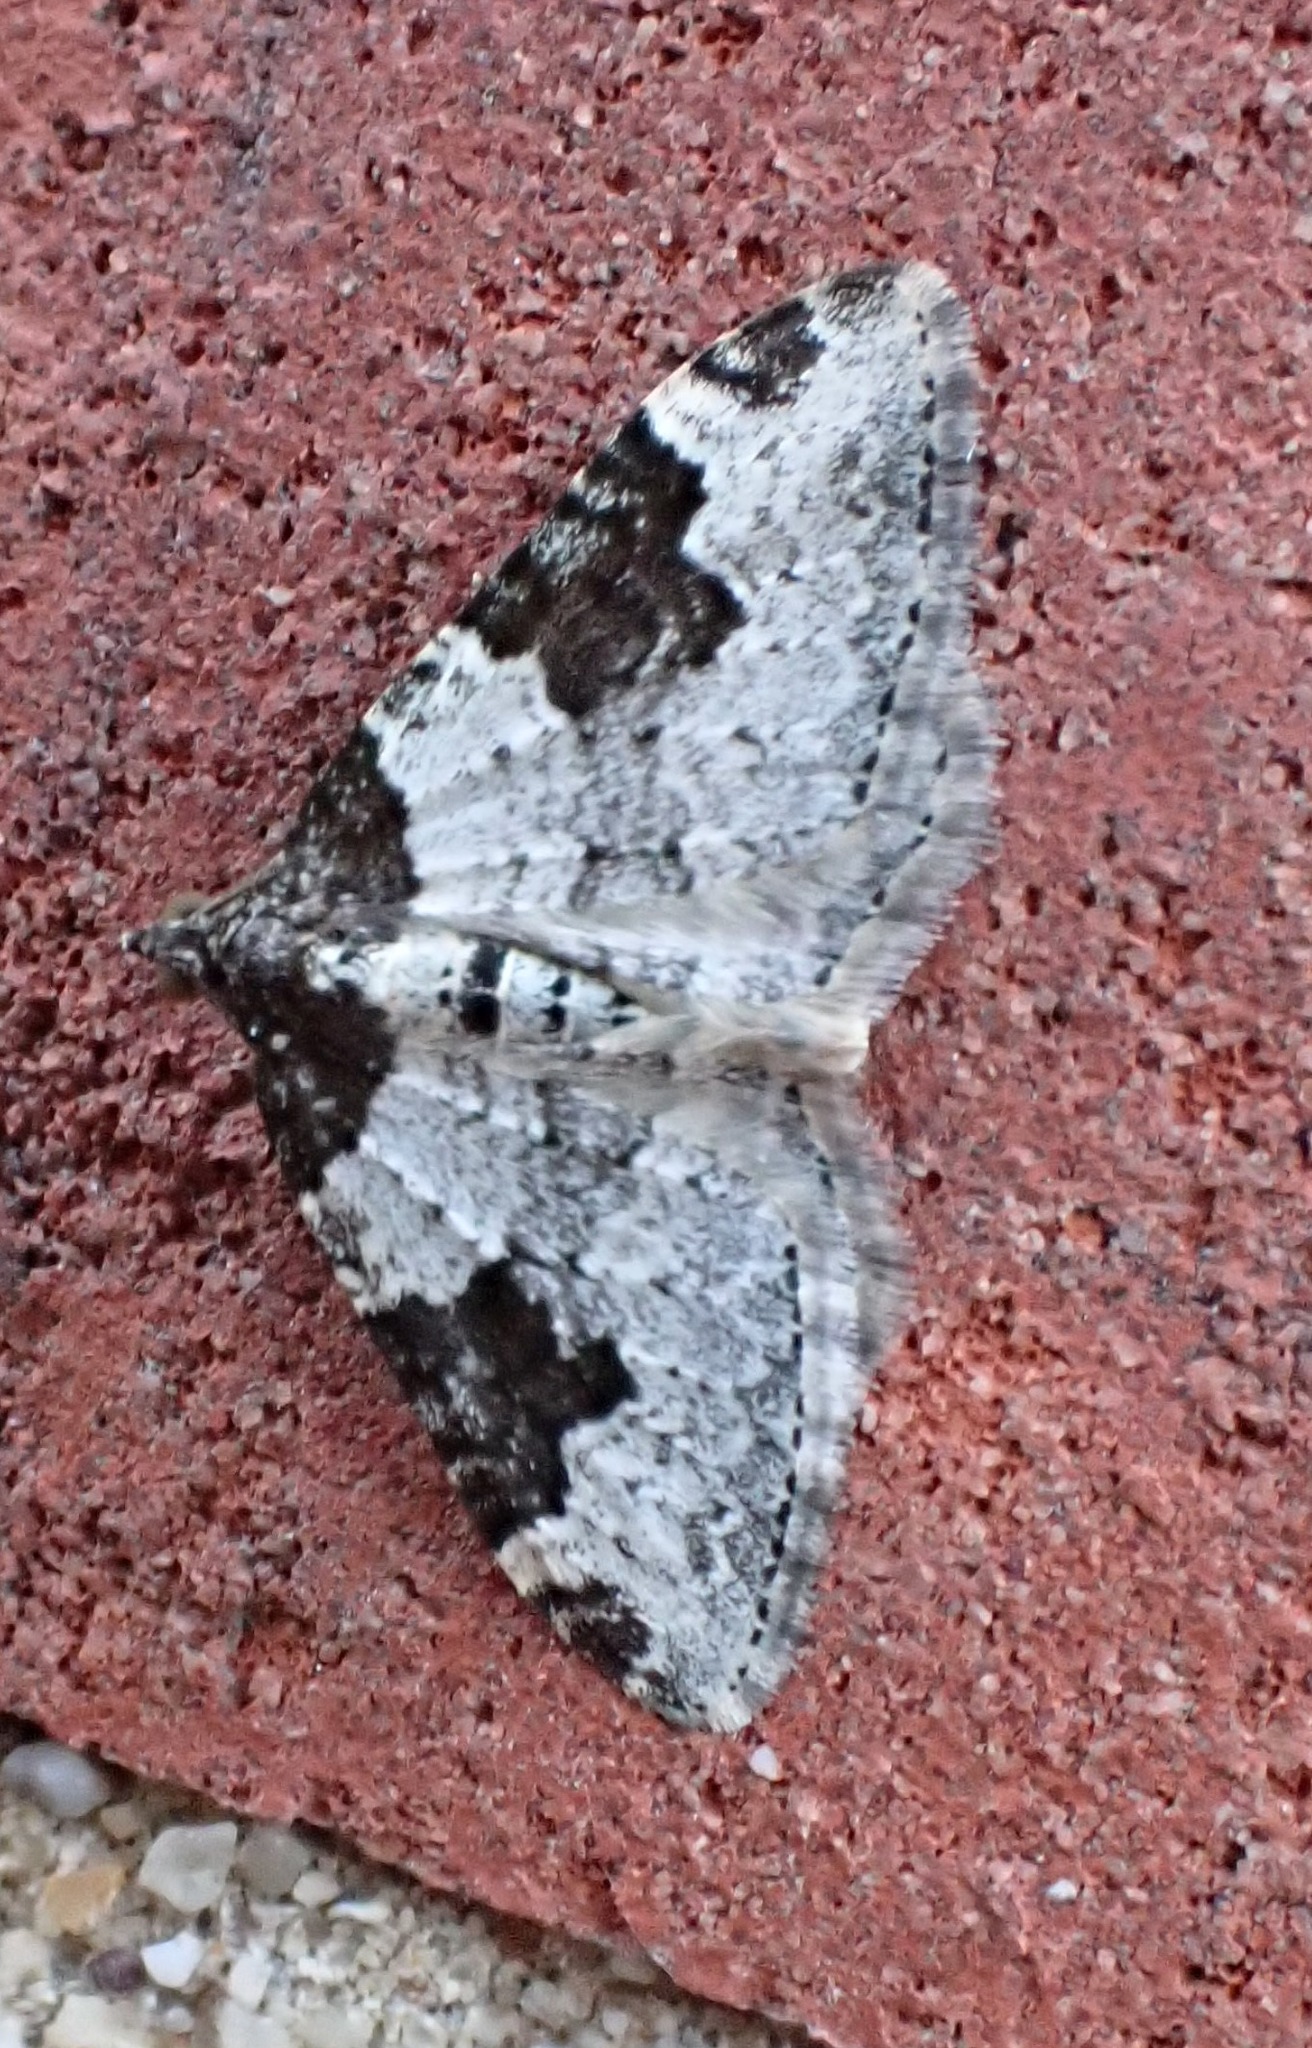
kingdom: Animalia
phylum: Arthropoda
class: Insecta
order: Lepidoptera
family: Geometridae
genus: Xanthorhoe
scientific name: Xanthorhoe fluctuata
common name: Garden carpet
